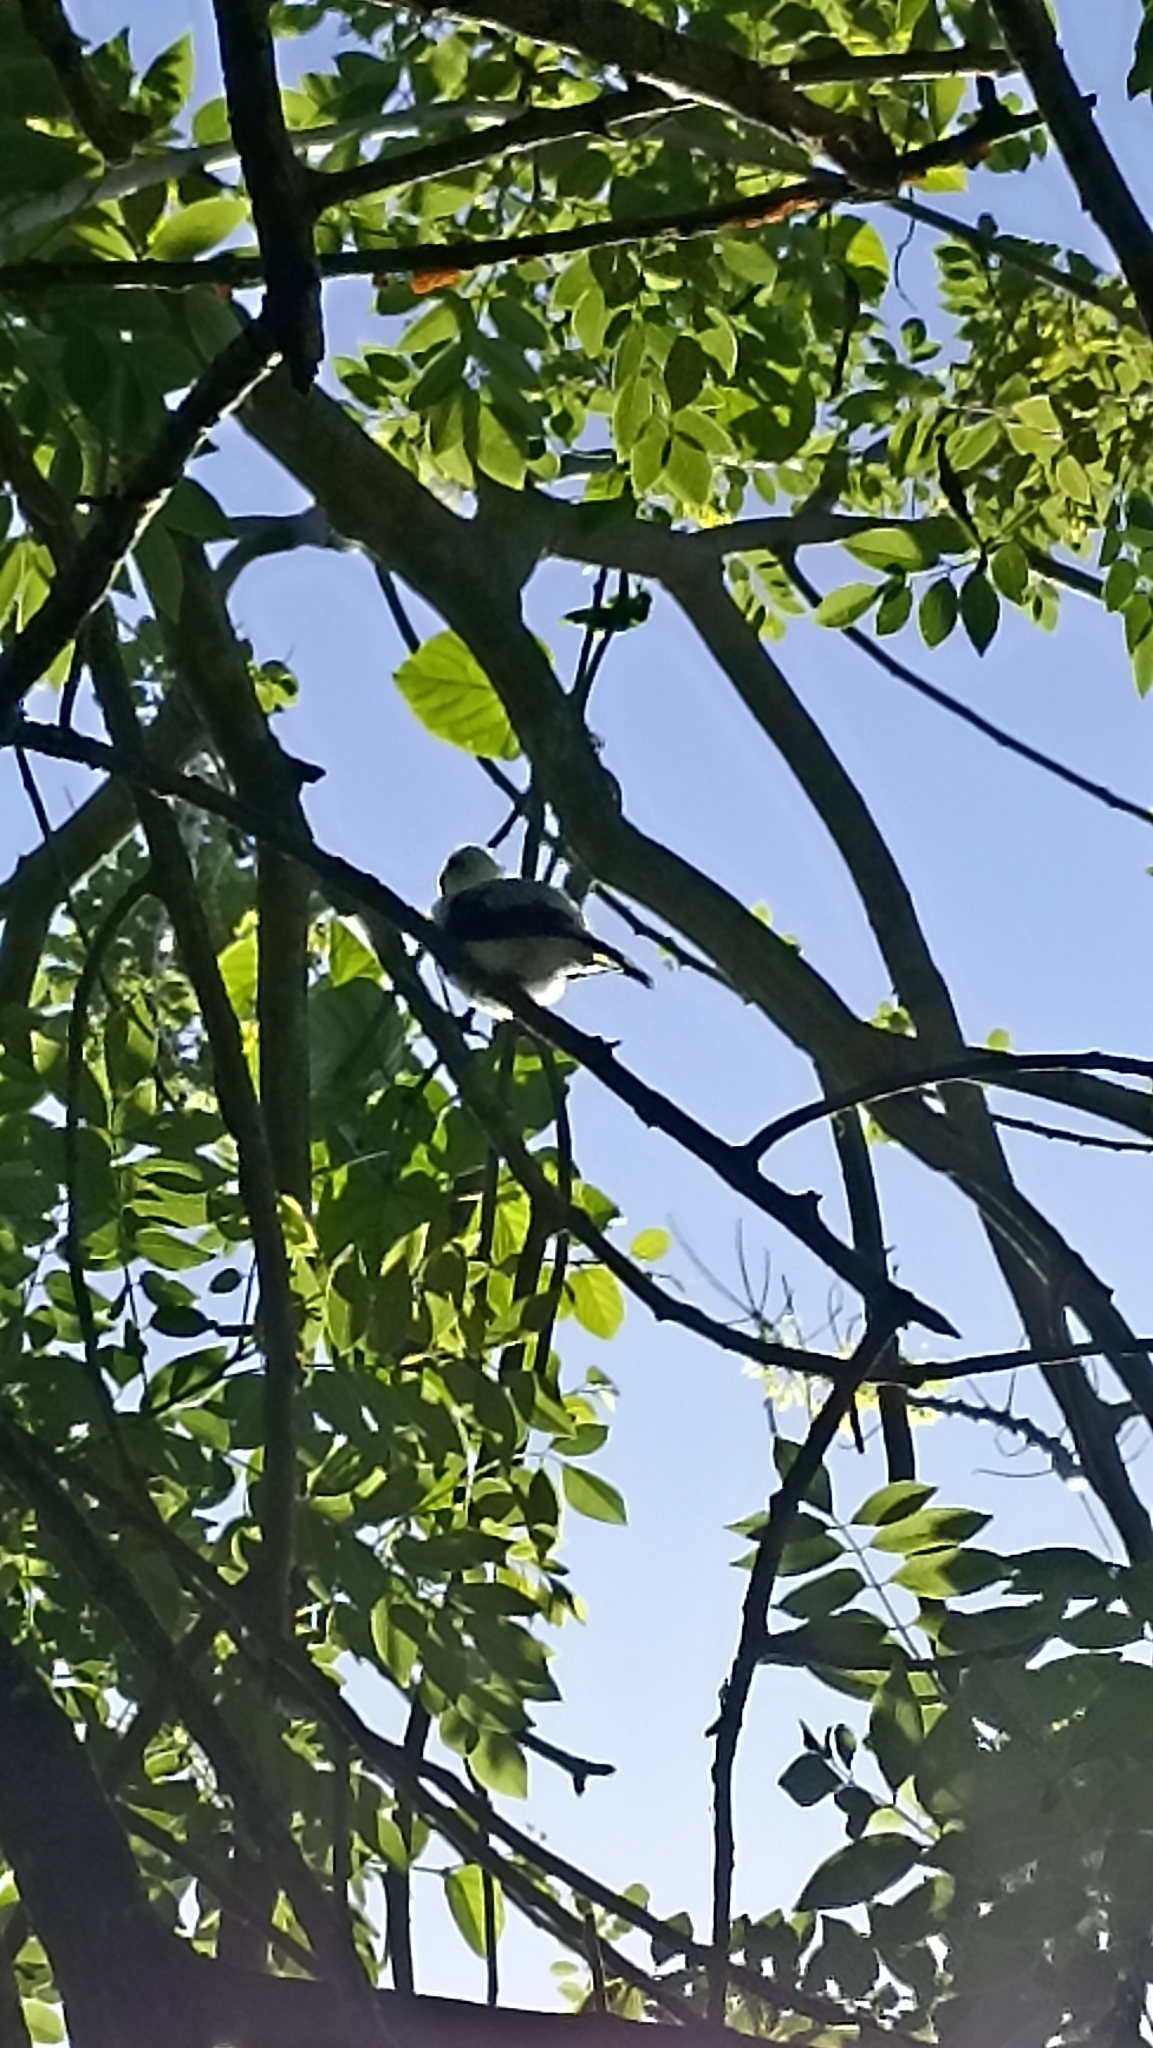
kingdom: Animalia
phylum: Chordata
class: Aves
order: Passeriformes
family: Tyrannidae
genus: Fluvicola
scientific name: Fluvicola nengeta
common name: Masked water tyrant
